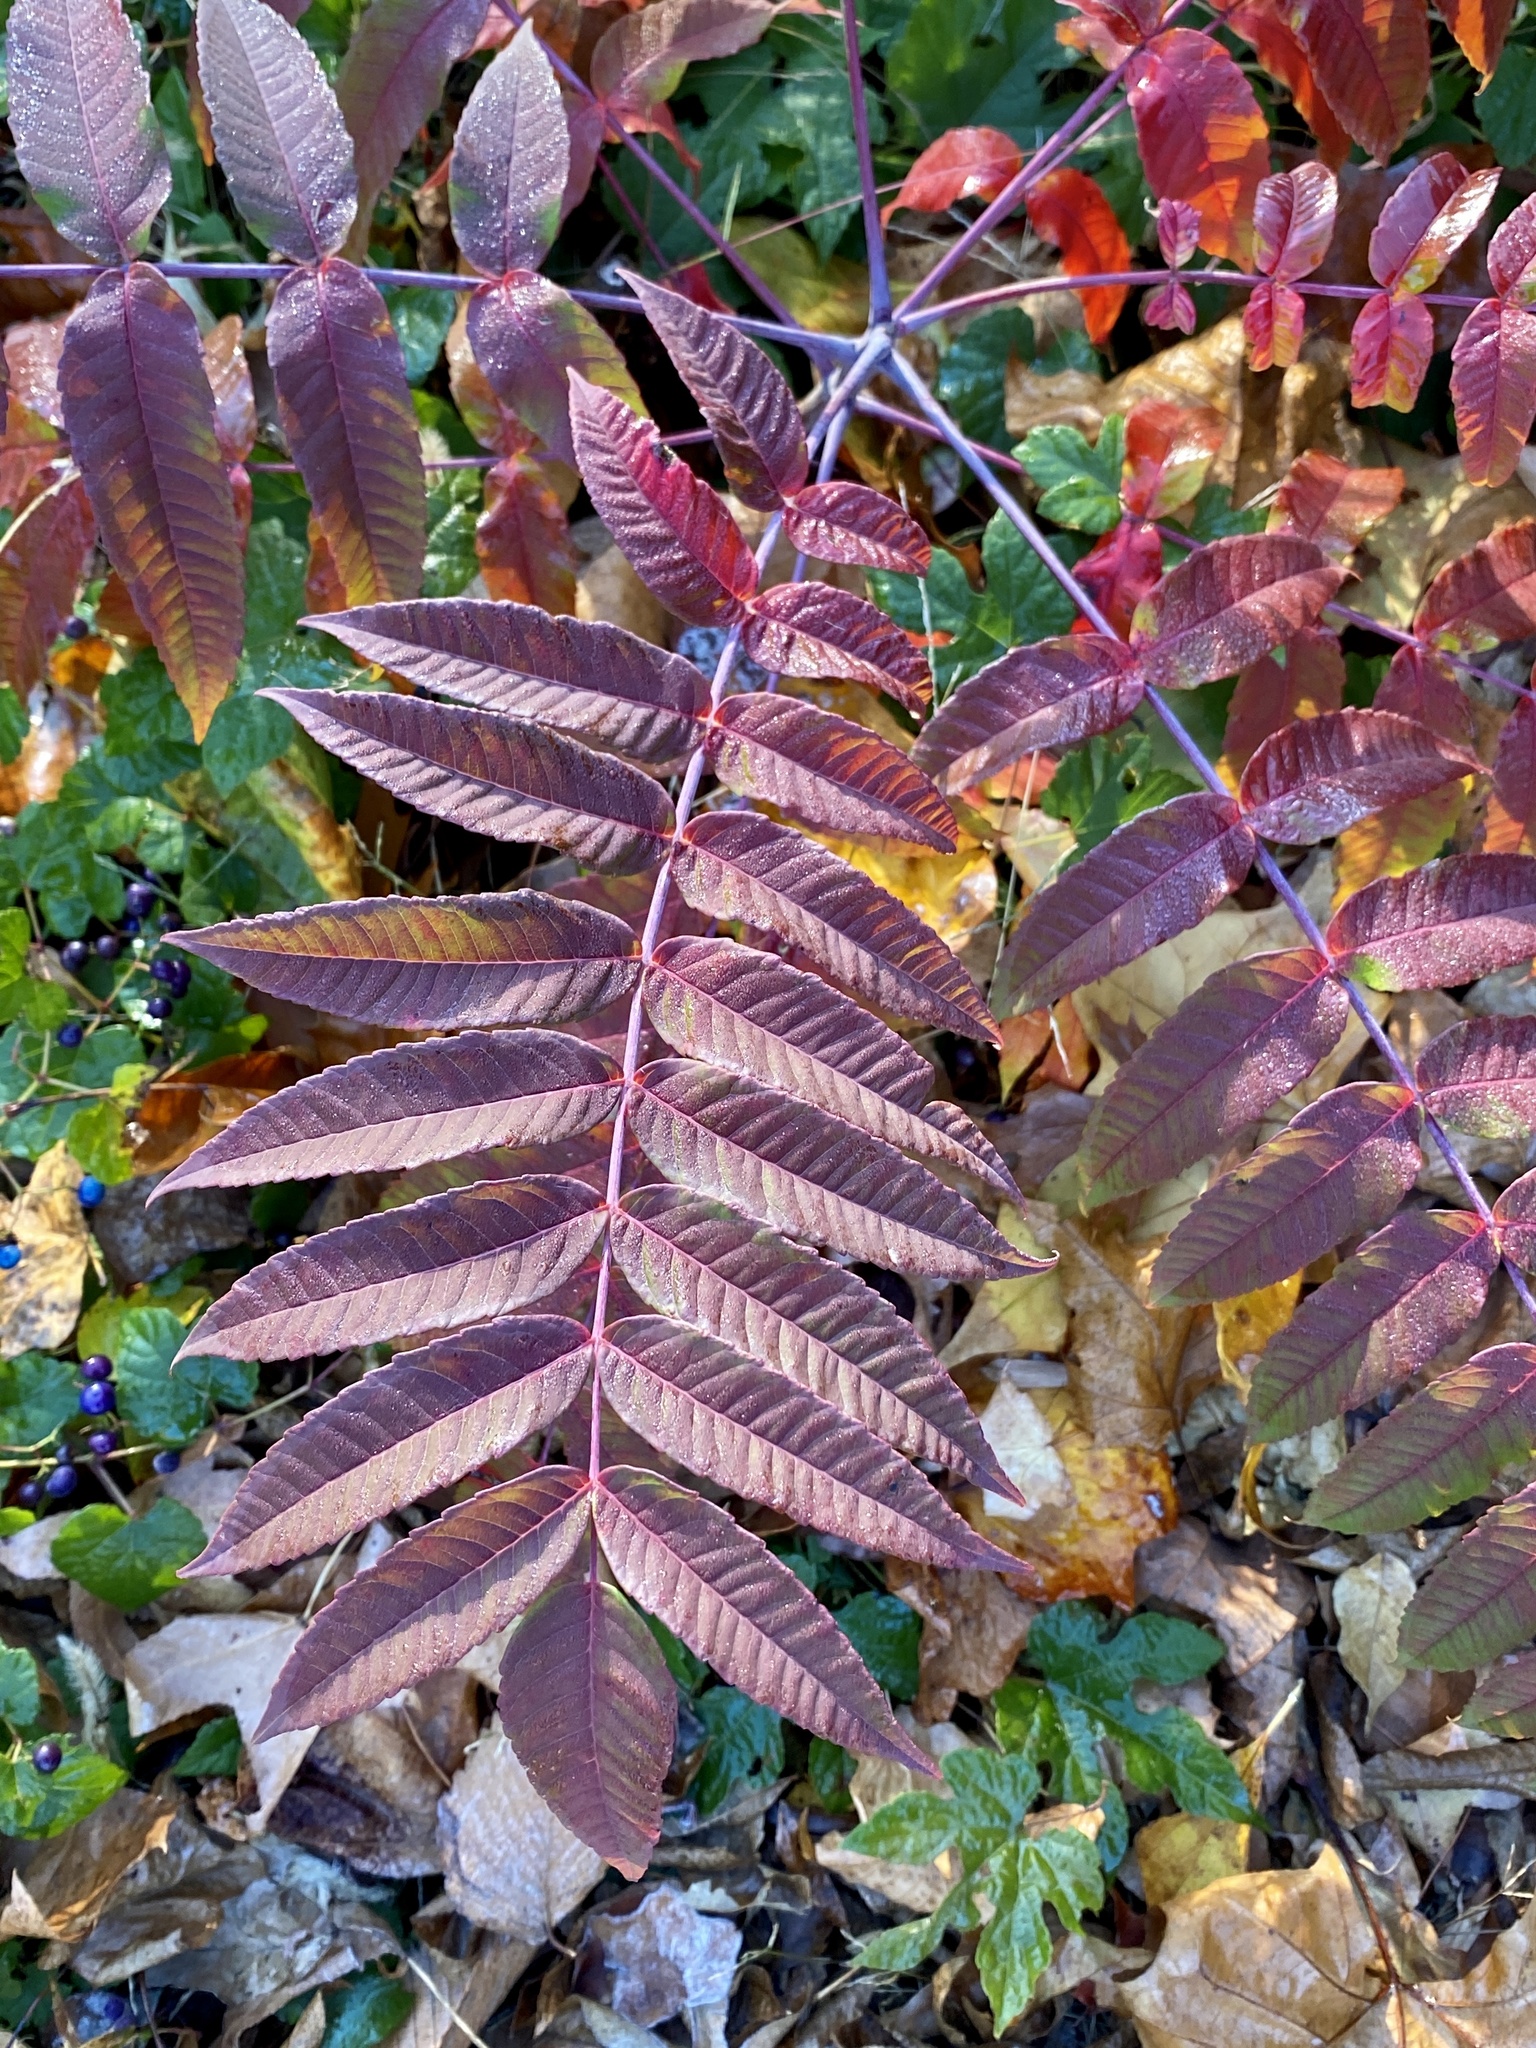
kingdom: Plantae
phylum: Tracheophyta
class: Magnoliopsida
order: Sapindales
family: Anacardiaceae
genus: Rhus
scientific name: Rhus glabra
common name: Scarlet sumac
